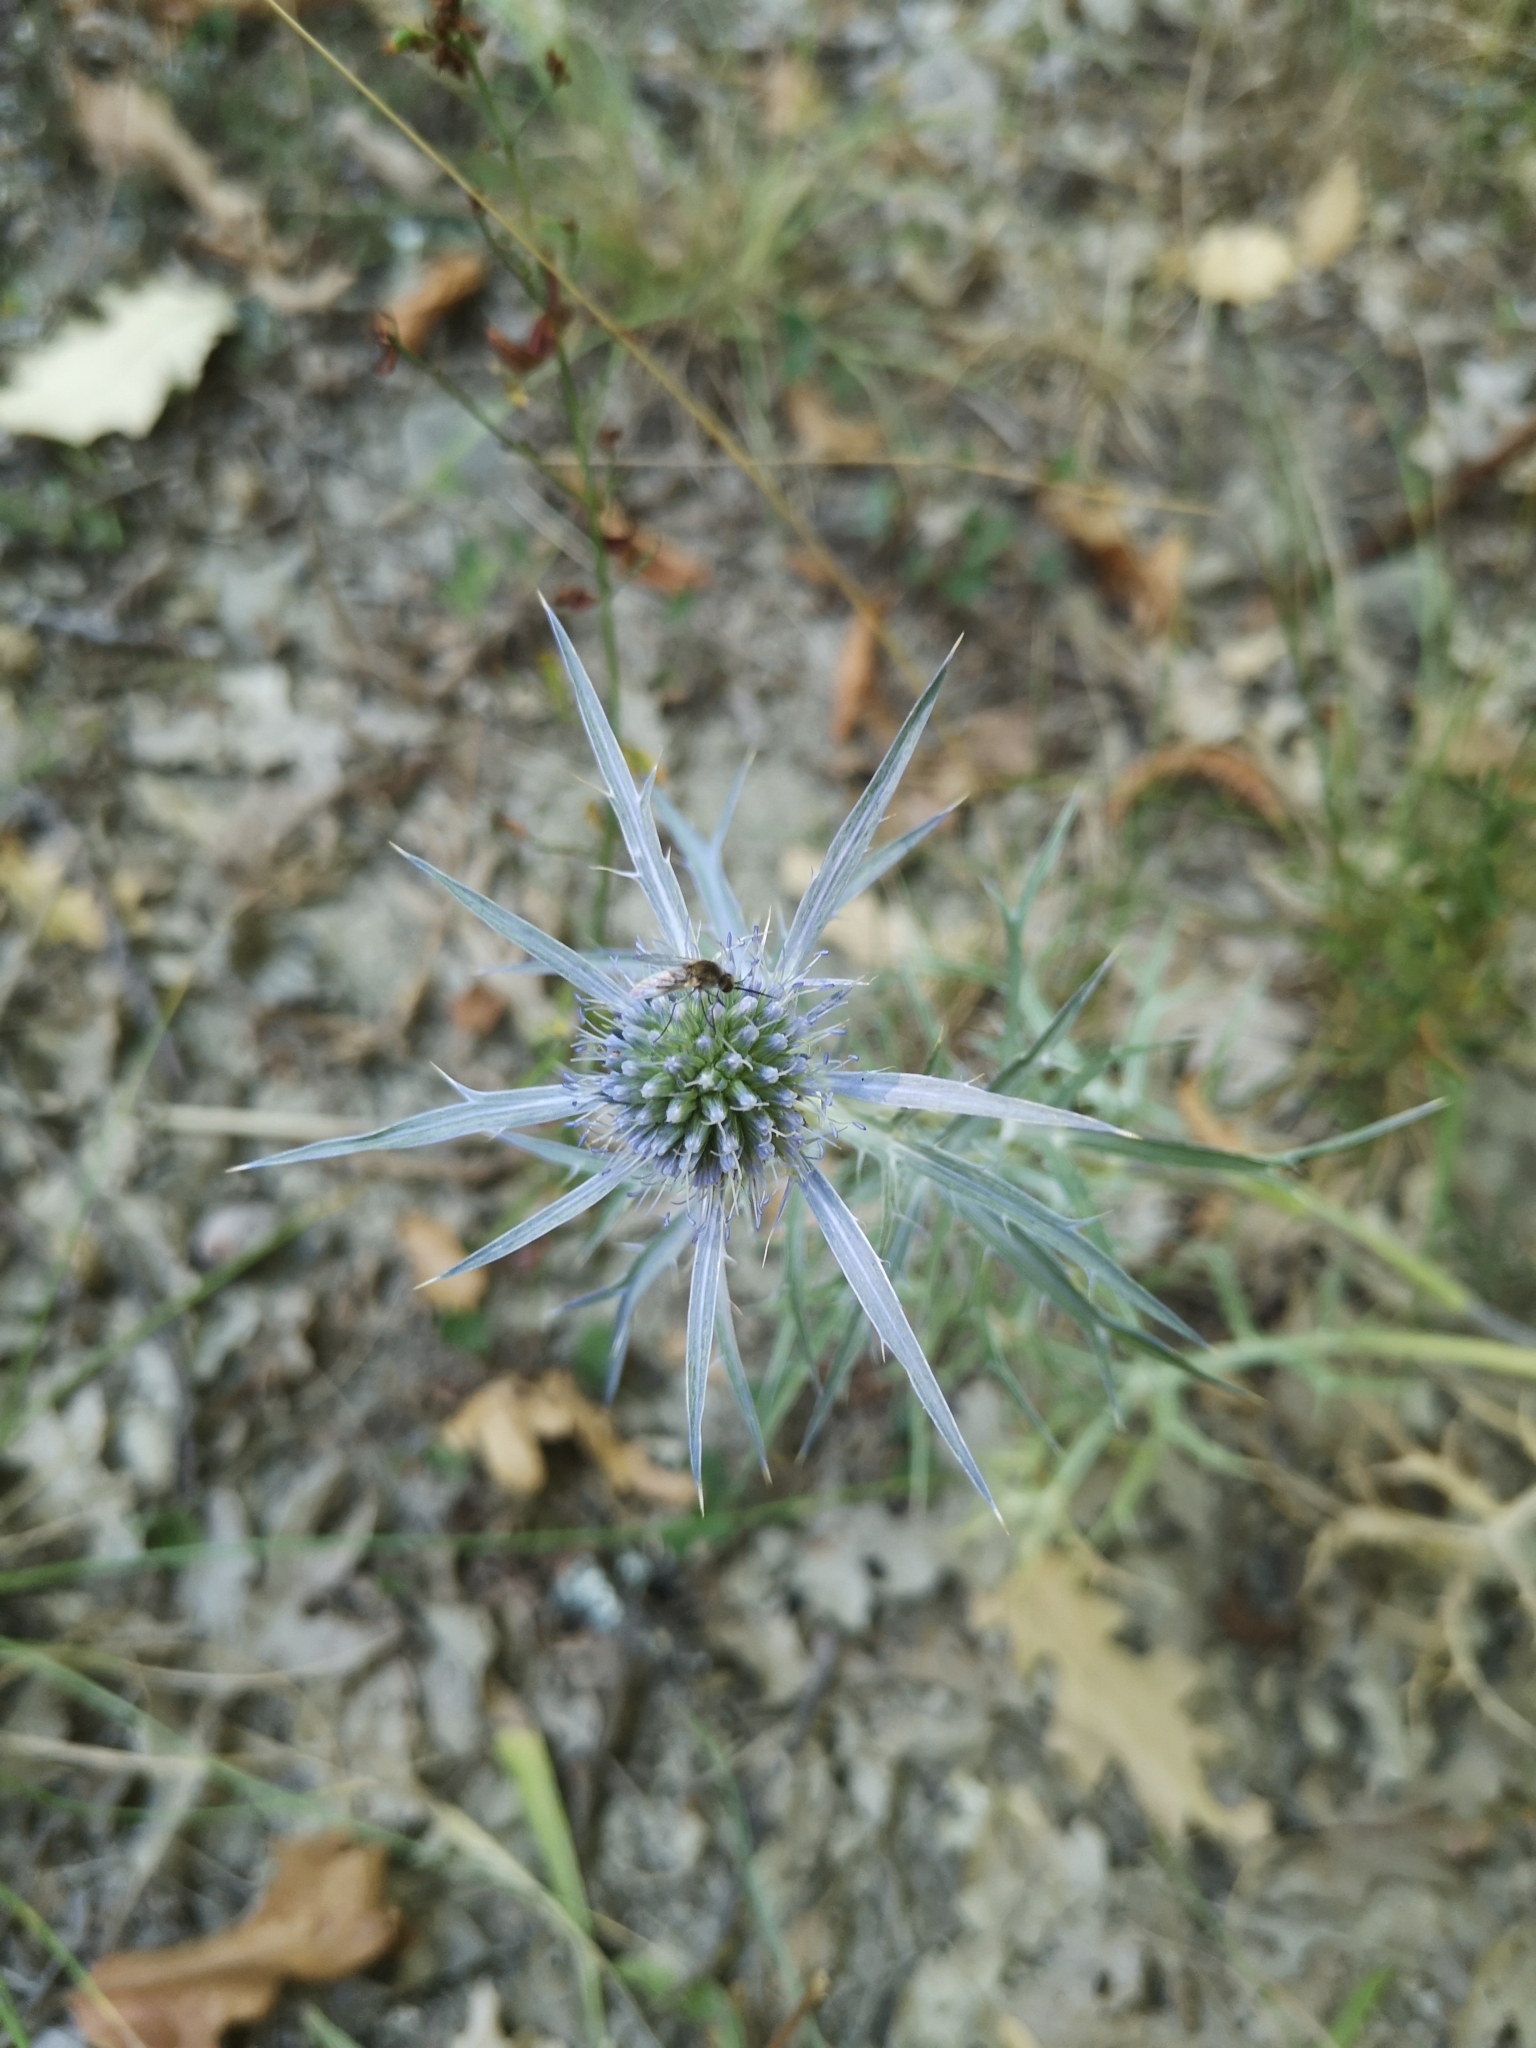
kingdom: Plantae
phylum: Tracheophyta
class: Magnoliopsida
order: Apiales
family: Apiaceae
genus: Eryngium
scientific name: Eryngium amethystinum
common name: Amethyst eryngo
